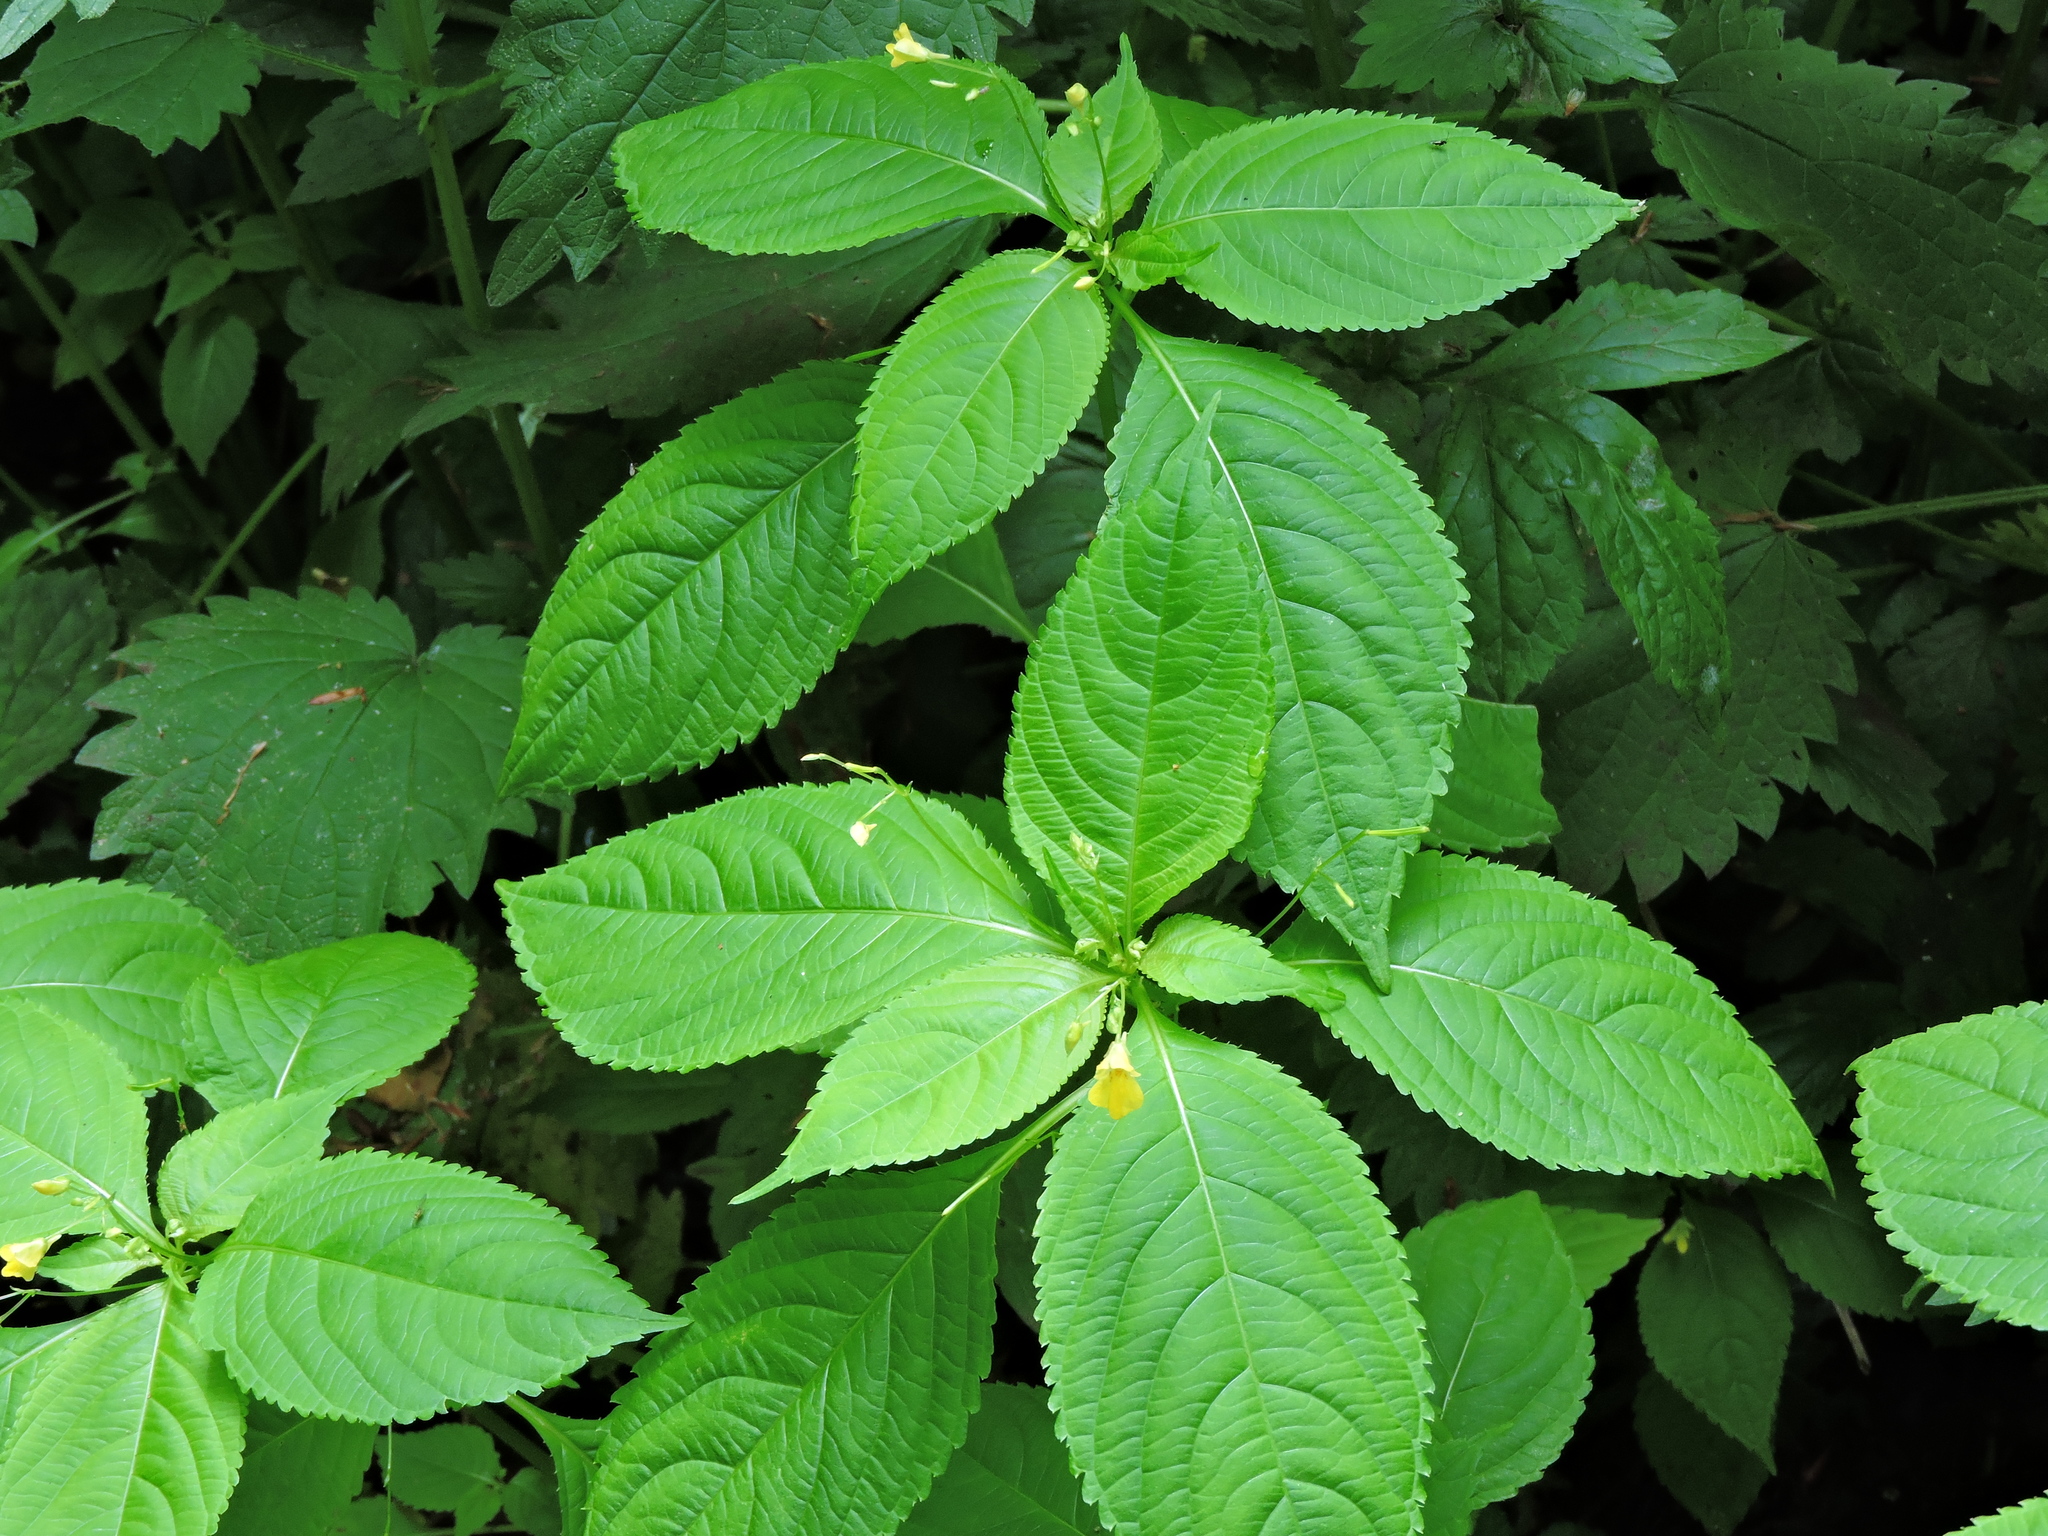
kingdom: Plantae
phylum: Tracheophyta
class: Magnoliopsida
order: Ericales
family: Balsaminaceae
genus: Impatiens
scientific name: Impatiens parviflora
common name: Small balsam
